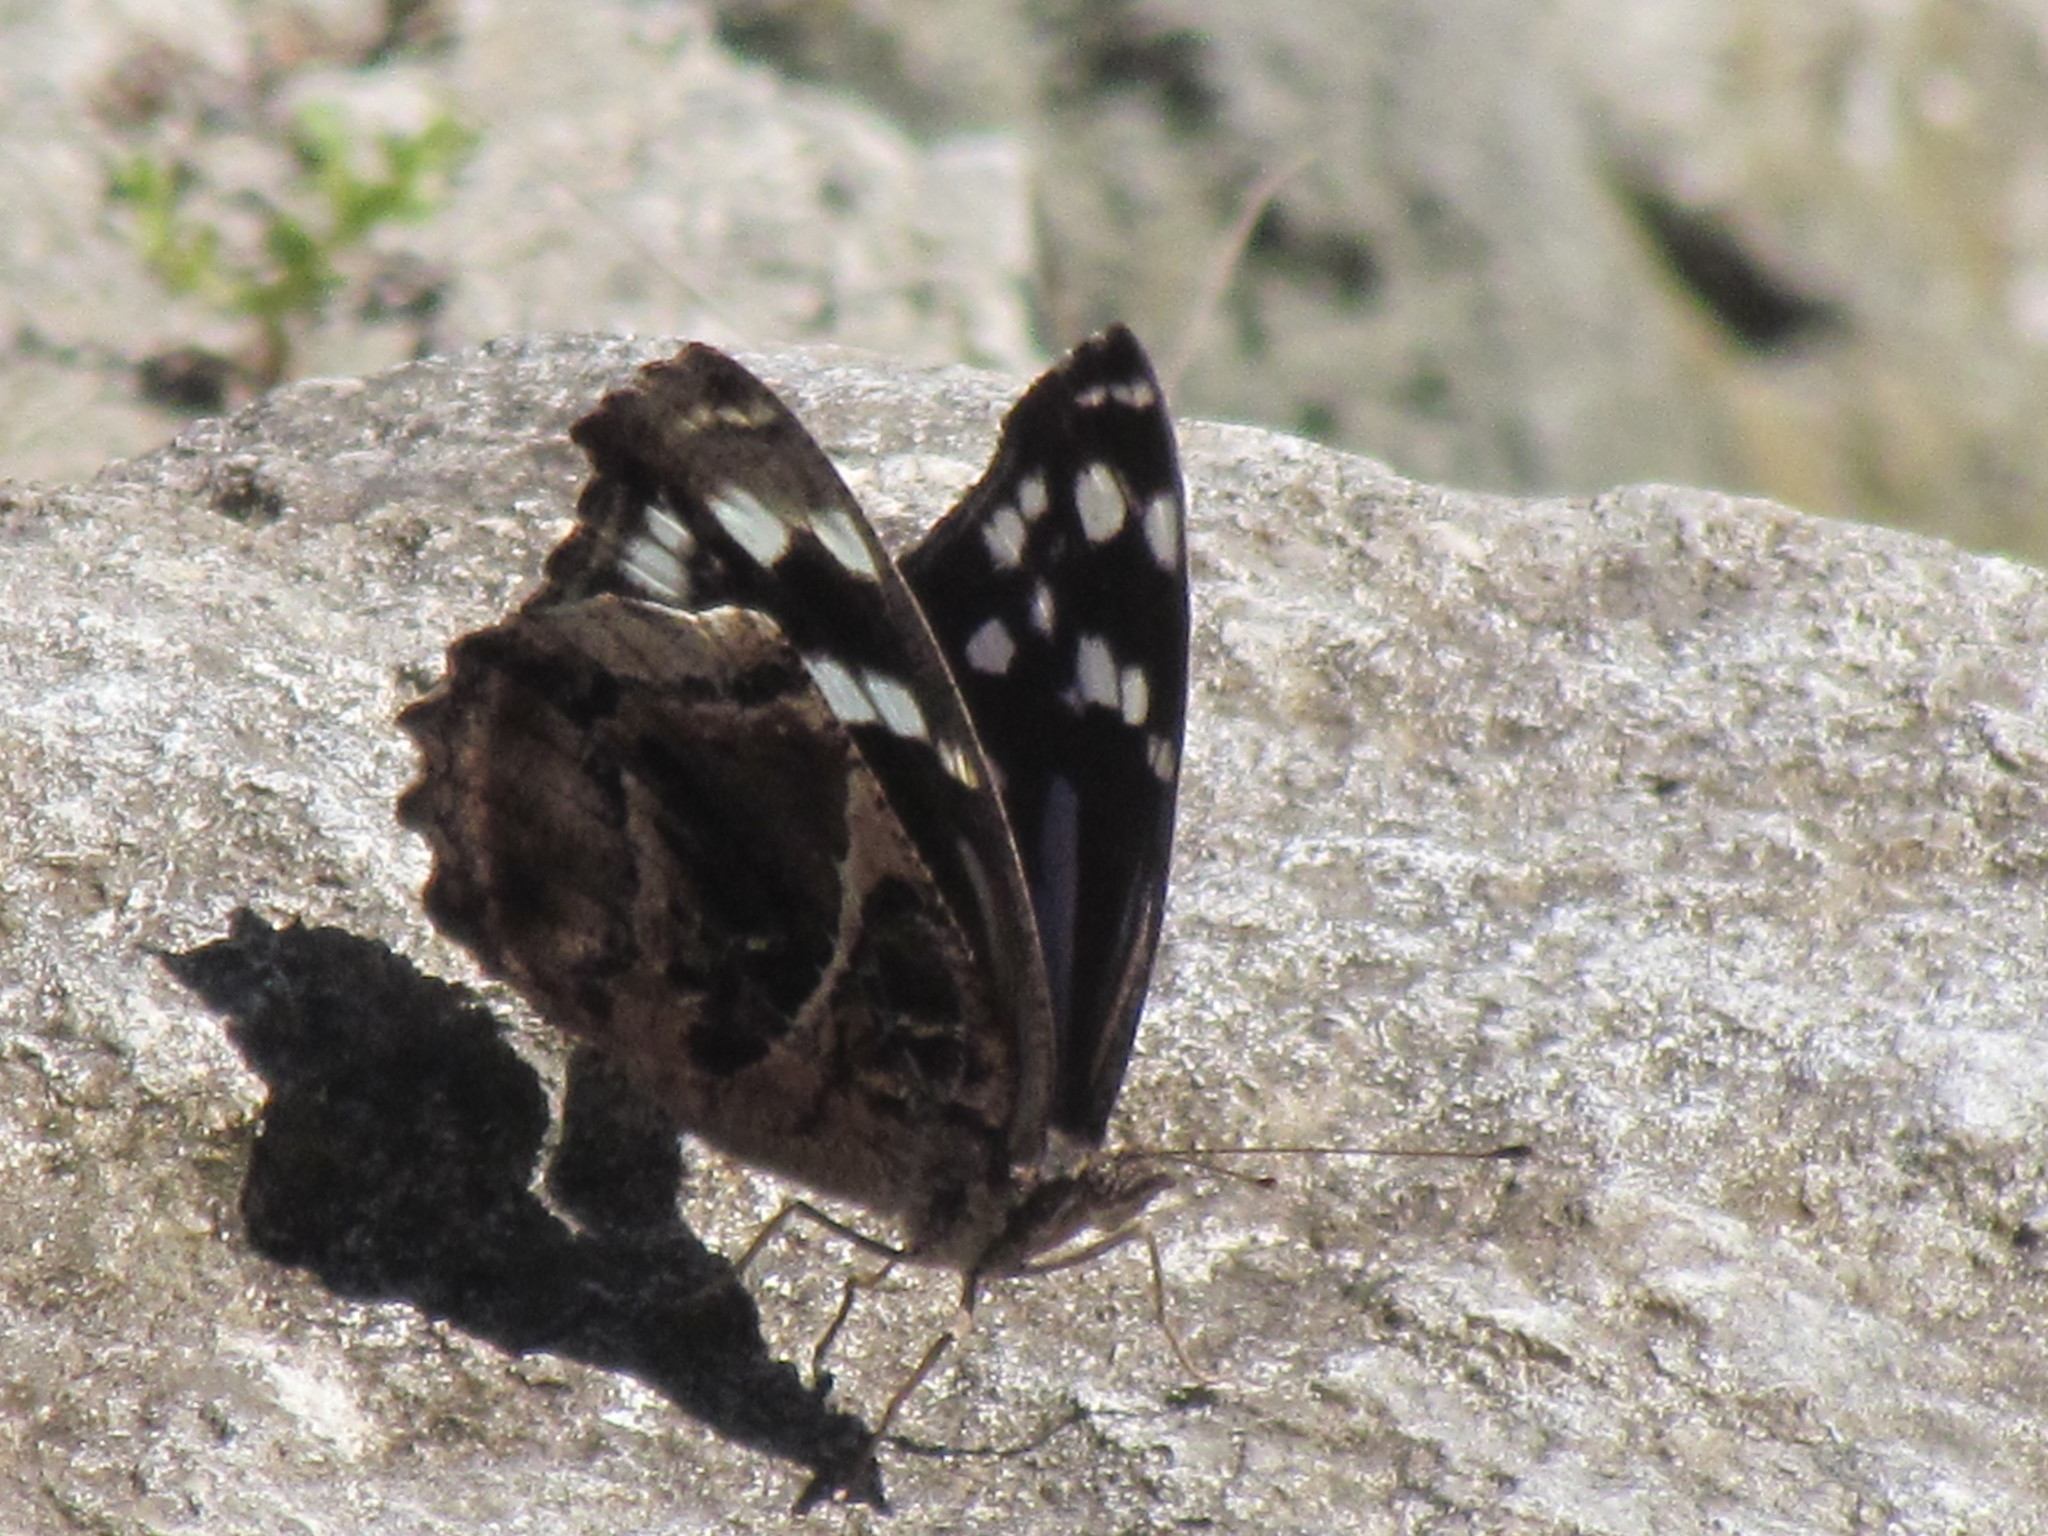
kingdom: Animalia
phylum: Arthropoda
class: Insecta
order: Lepidoptera
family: Nymphalidae
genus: Myscelia
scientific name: Myscelia ethusa
